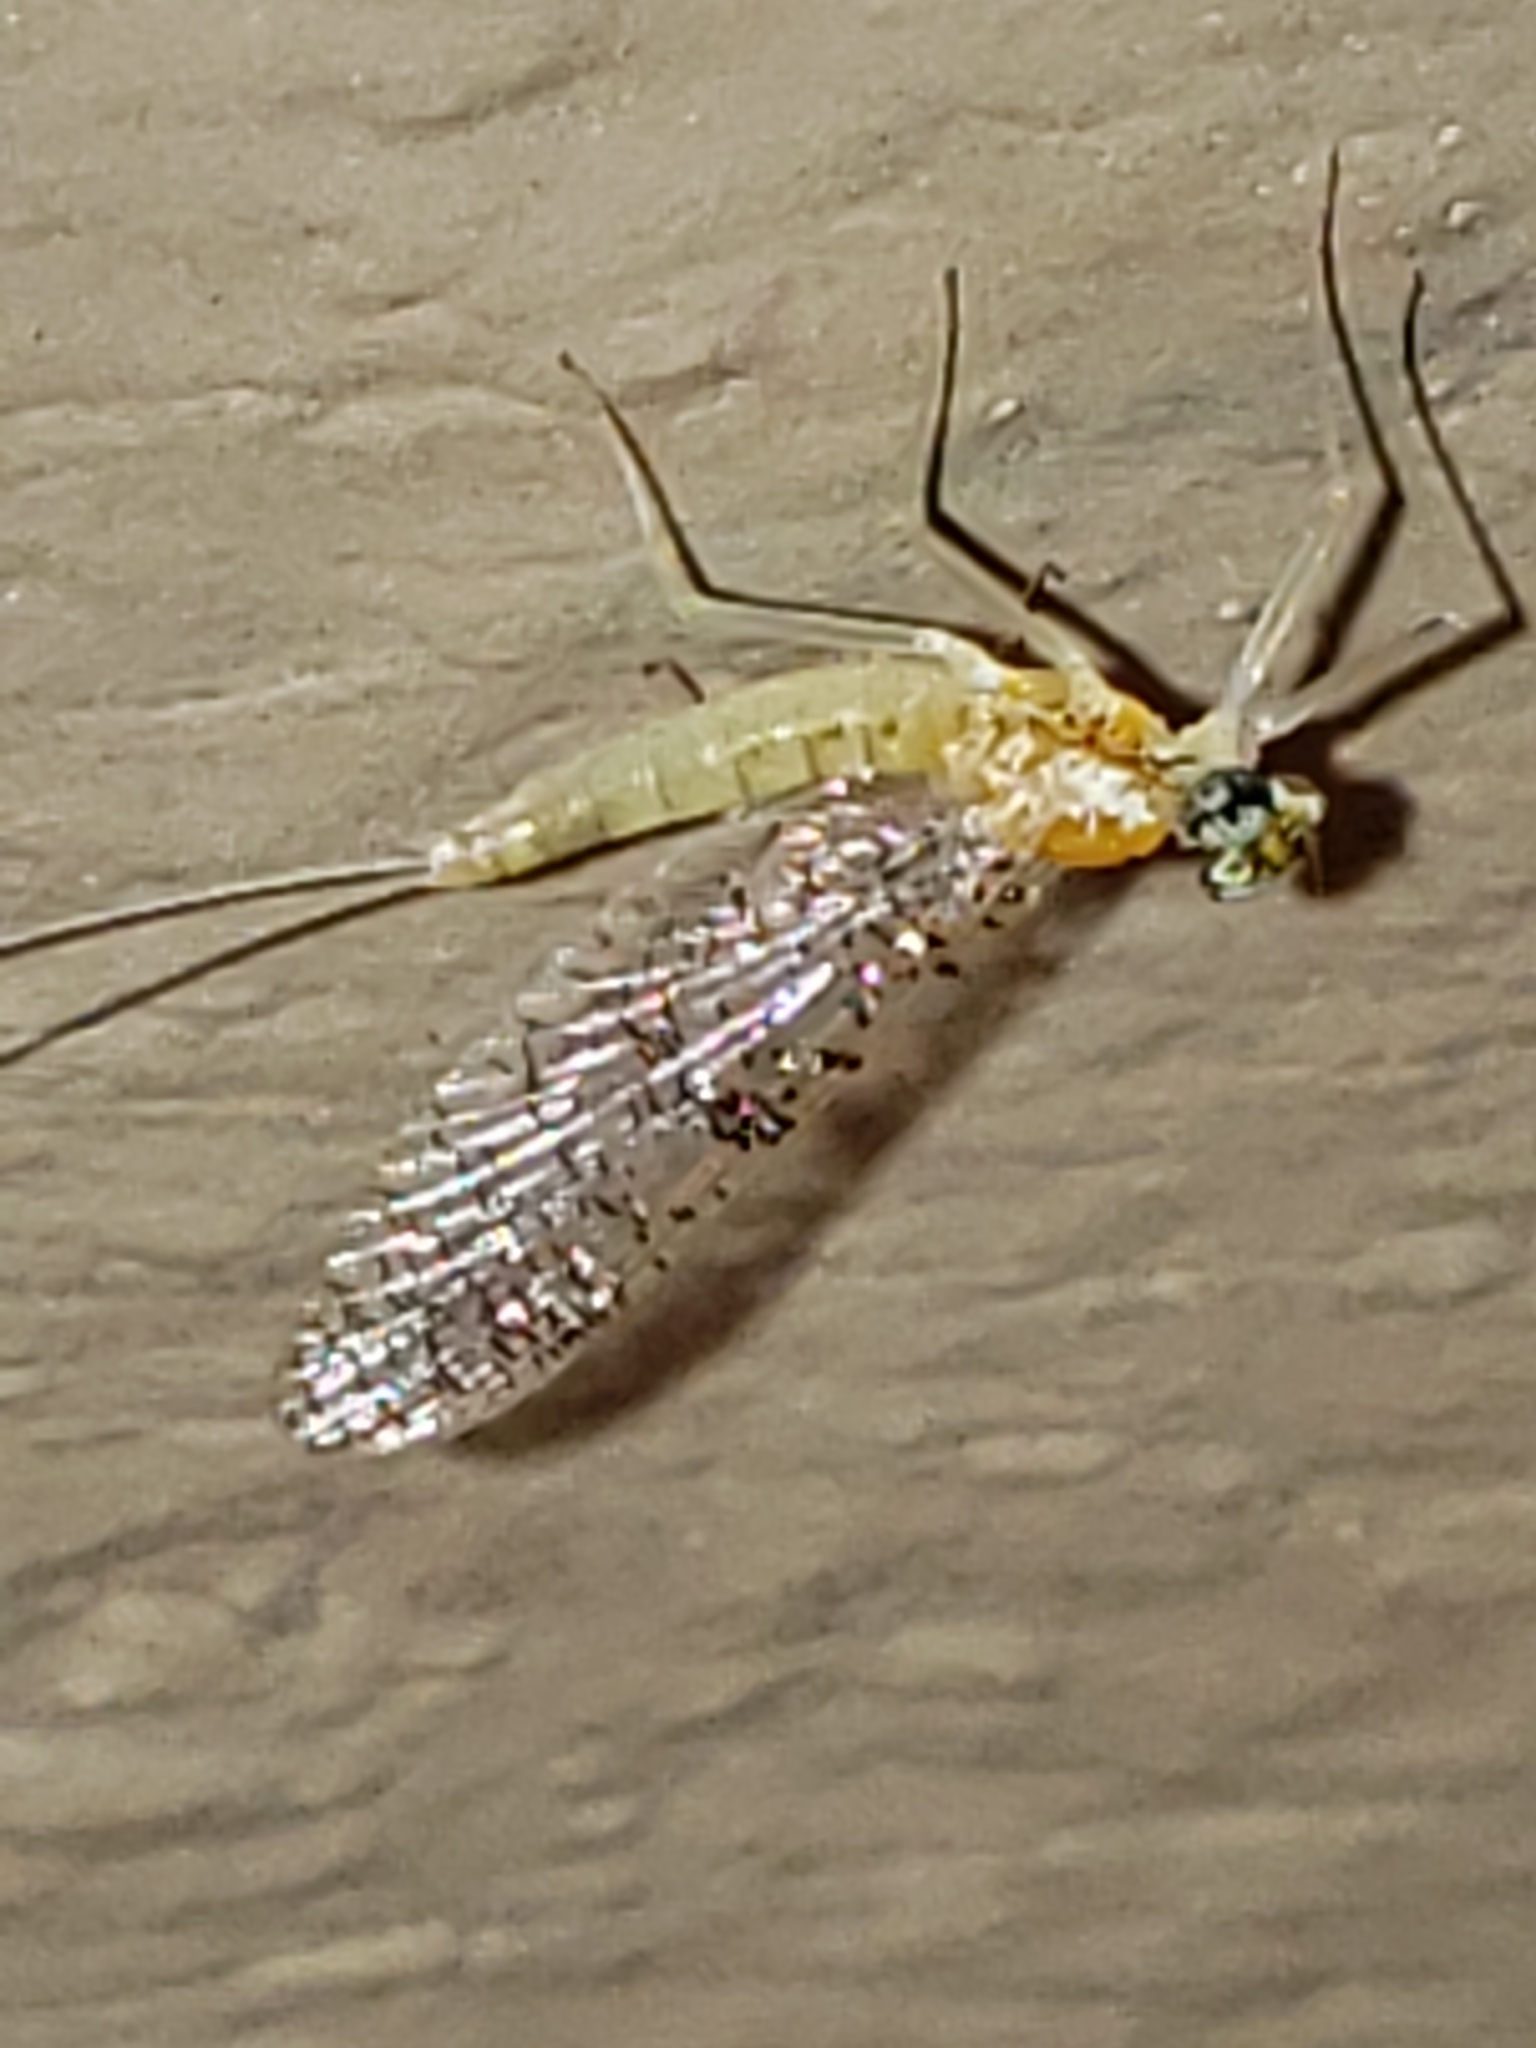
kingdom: Animalia
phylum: Arthropoda
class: Insecta
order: Ephemeroptera
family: Heptageniidae
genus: Leucrocuta
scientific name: Leucrocuta hebe
